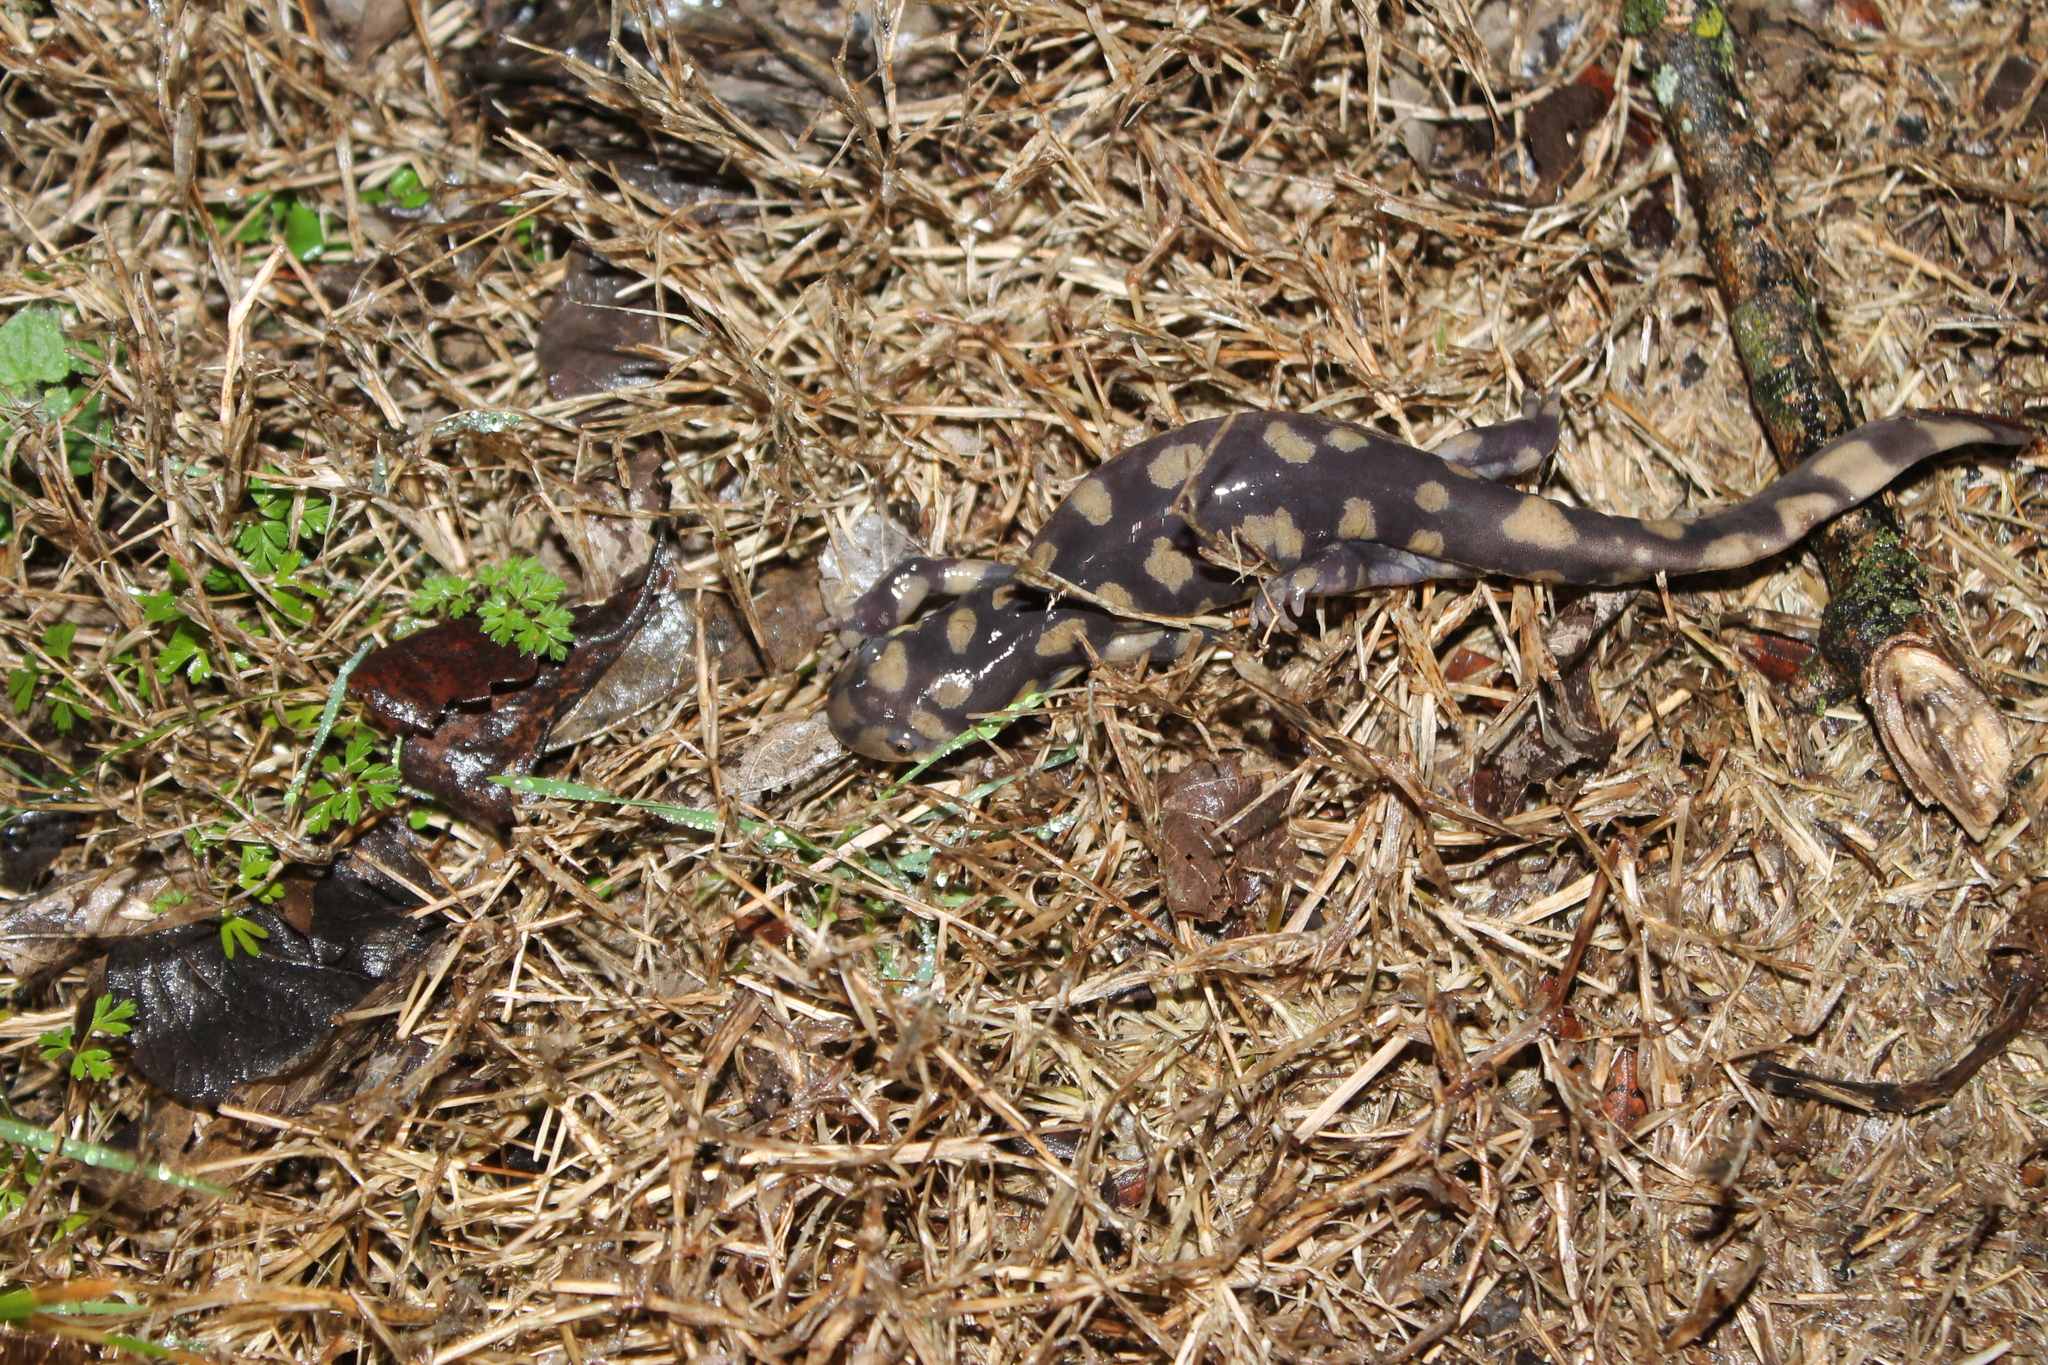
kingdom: Animalia
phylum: Chordata
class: Amphibia
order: Caudata
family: Ambystomatidae
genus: Ambystoma
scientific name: Ambystoma tigrinum
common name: Tiger salamander
